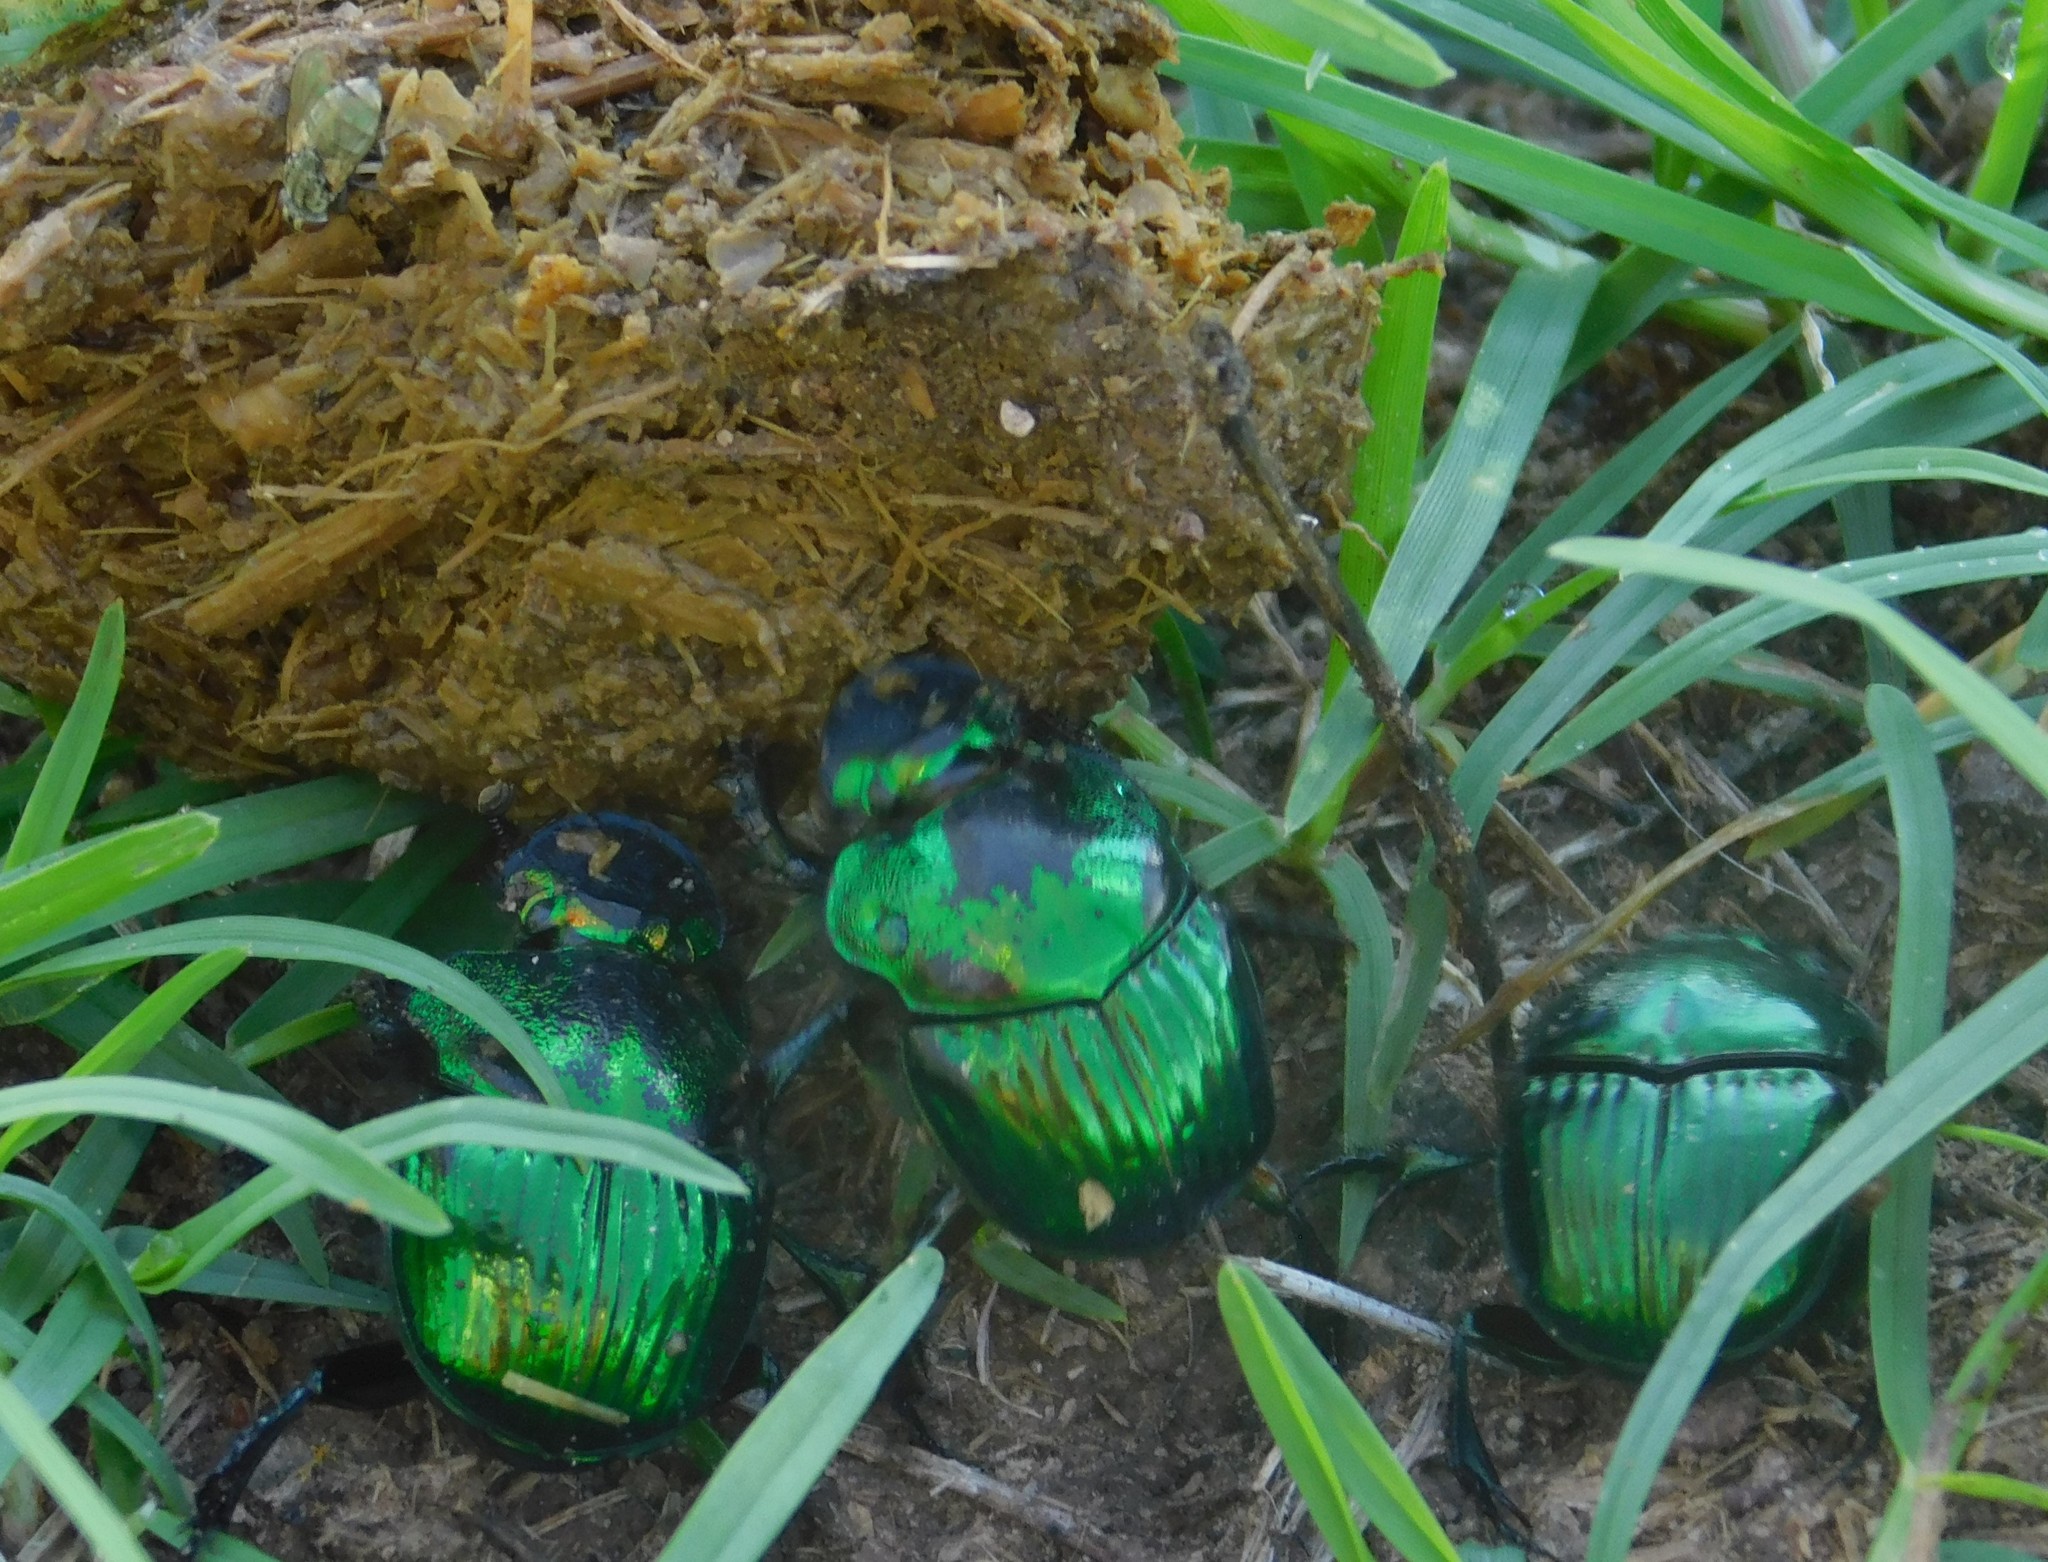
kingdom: Animalia
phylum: Arthropoda
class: Insecta
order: Coleoptera
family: Scarabaeidae
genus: Phanaeus
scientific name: Phanaeus mexicanus
